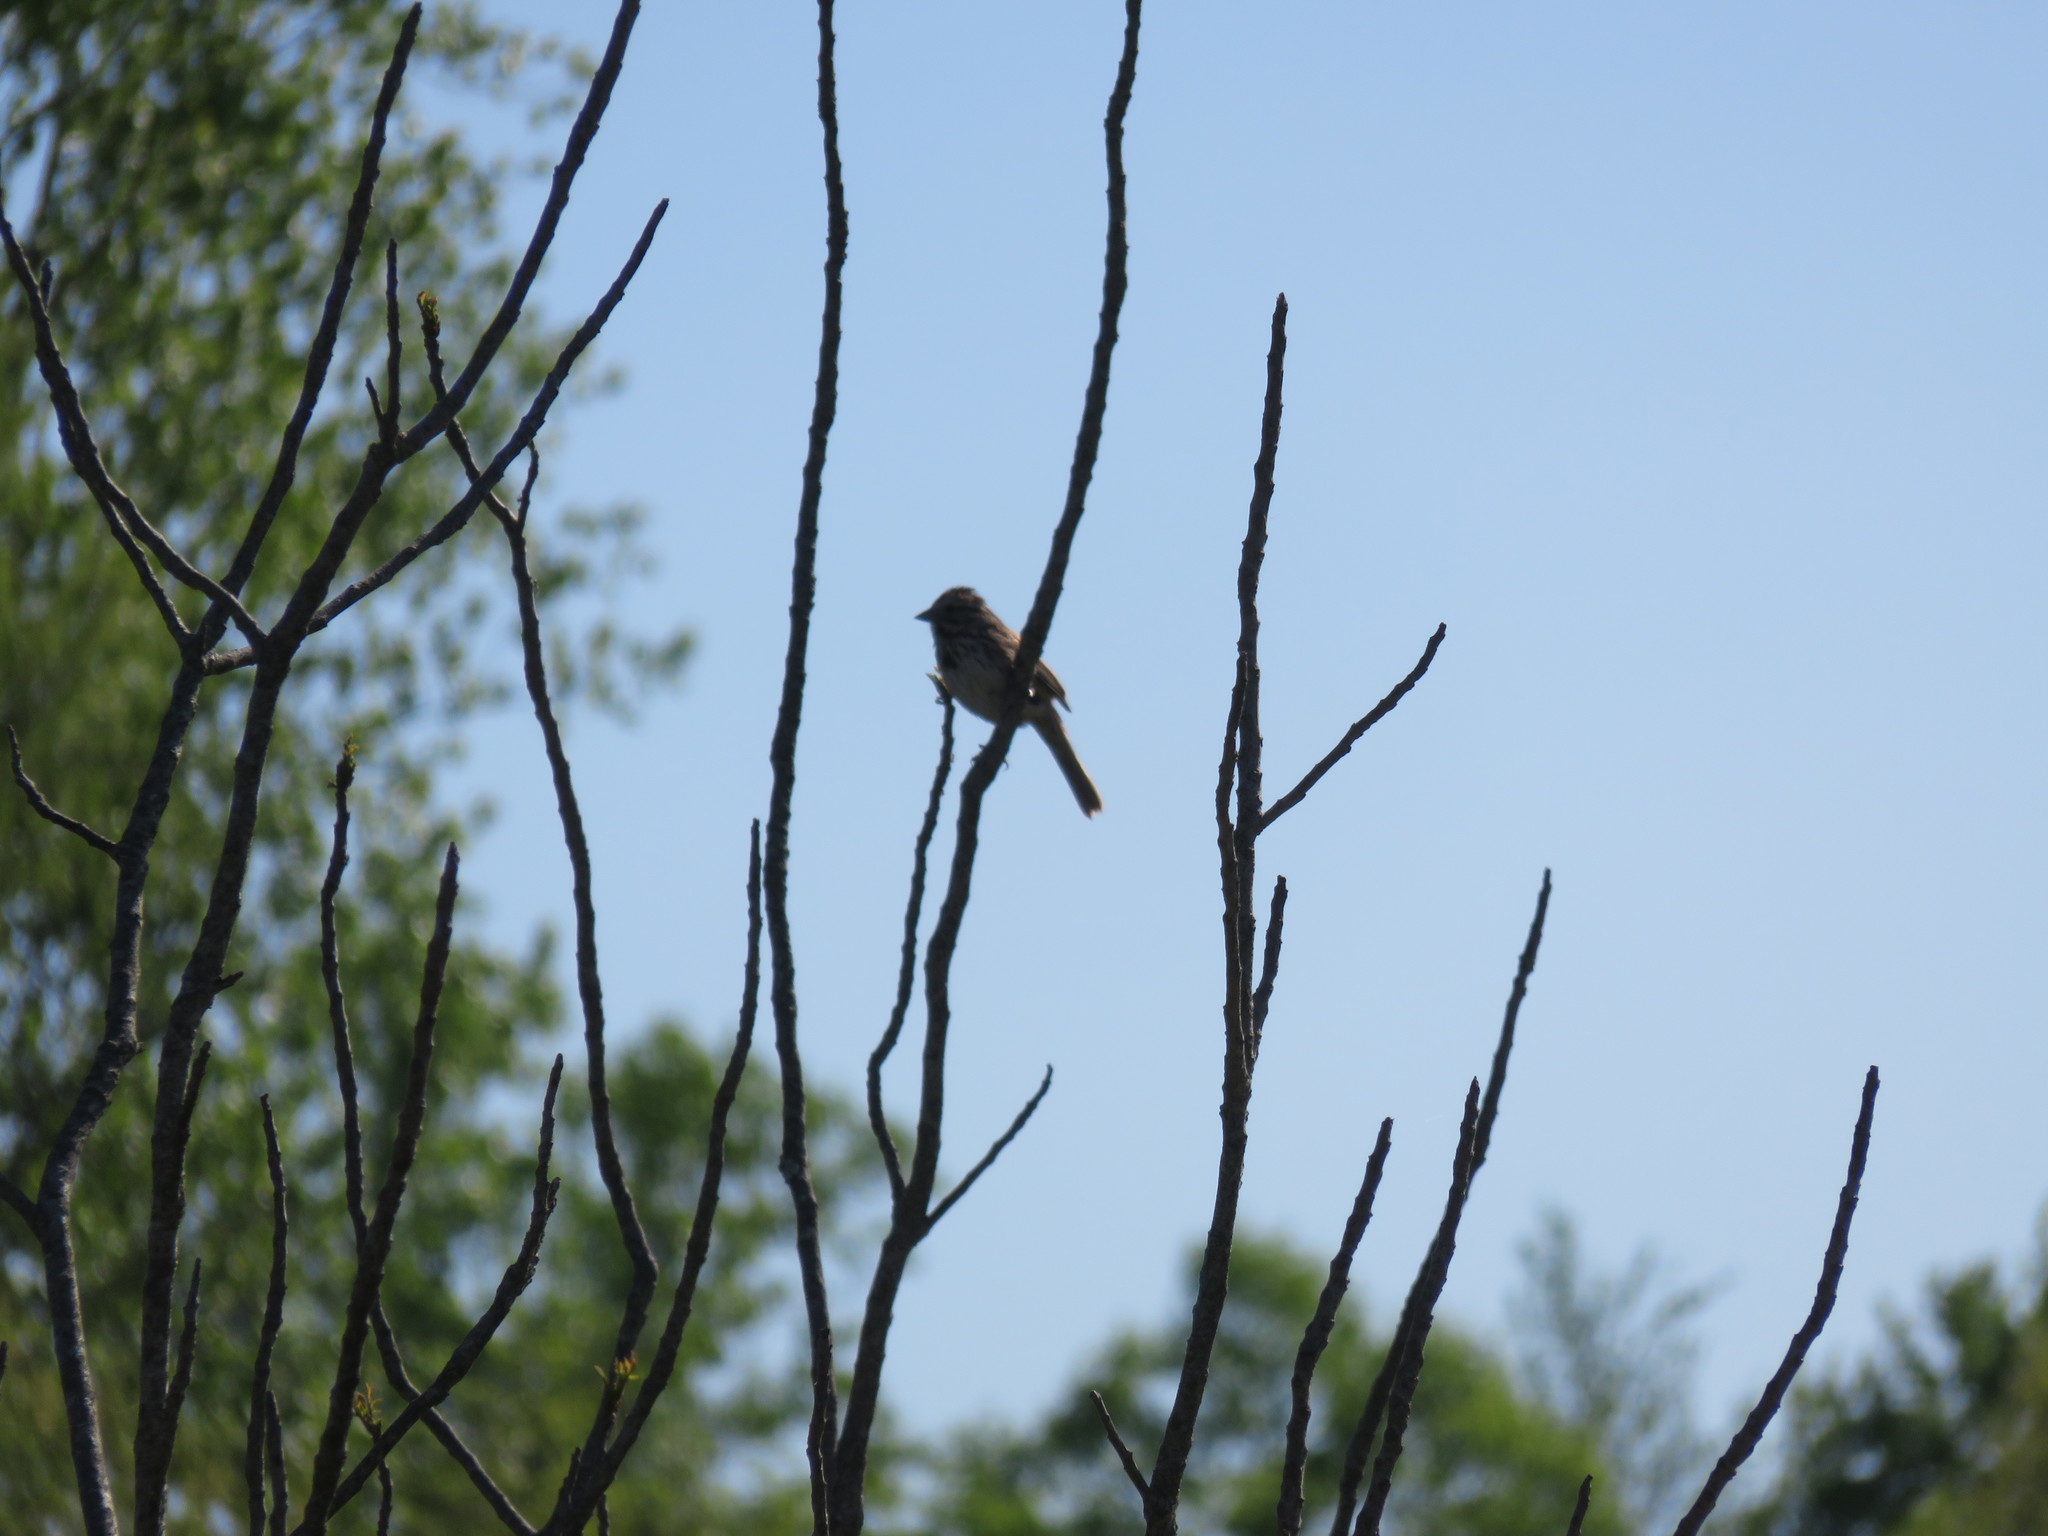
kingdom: Animalia
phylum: Chordata
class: Aves
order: Passeriformes
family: Passerellidae
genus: Melospiza
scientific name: Melospiza melodia
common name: Song sparrow
